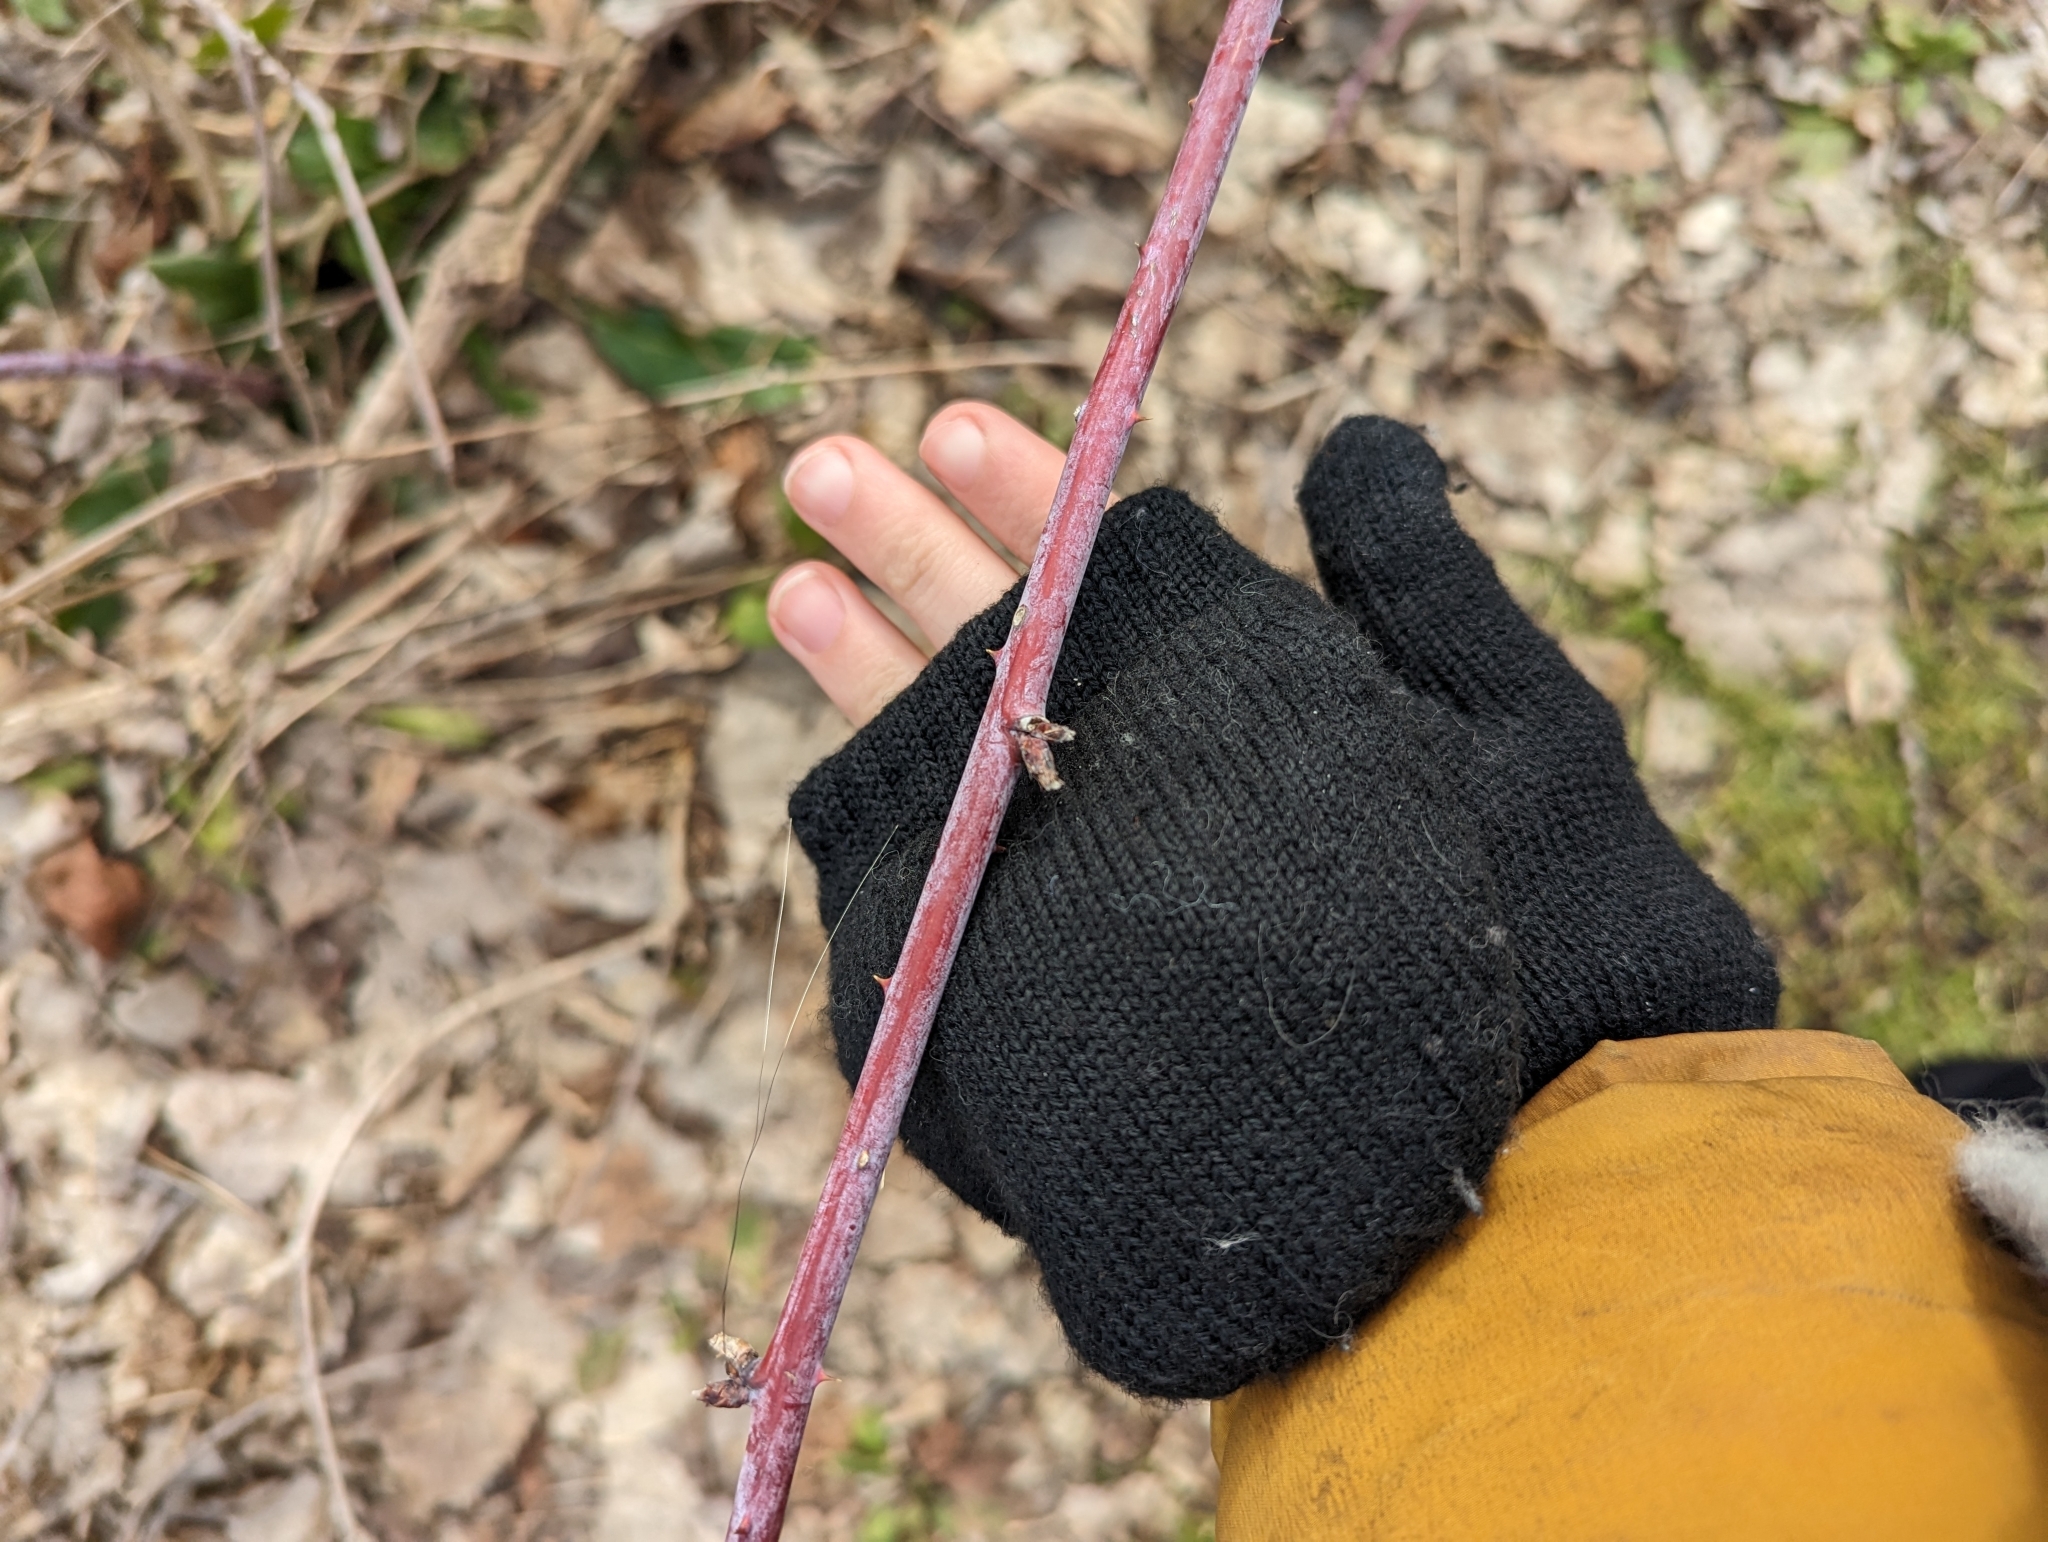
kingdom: Plantae
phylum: Tracheophyta
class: Magnoliopsida
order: Rosales
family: Rosaceae
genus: Rubus
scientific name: Rubus occidentalis
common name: Black raspberry
